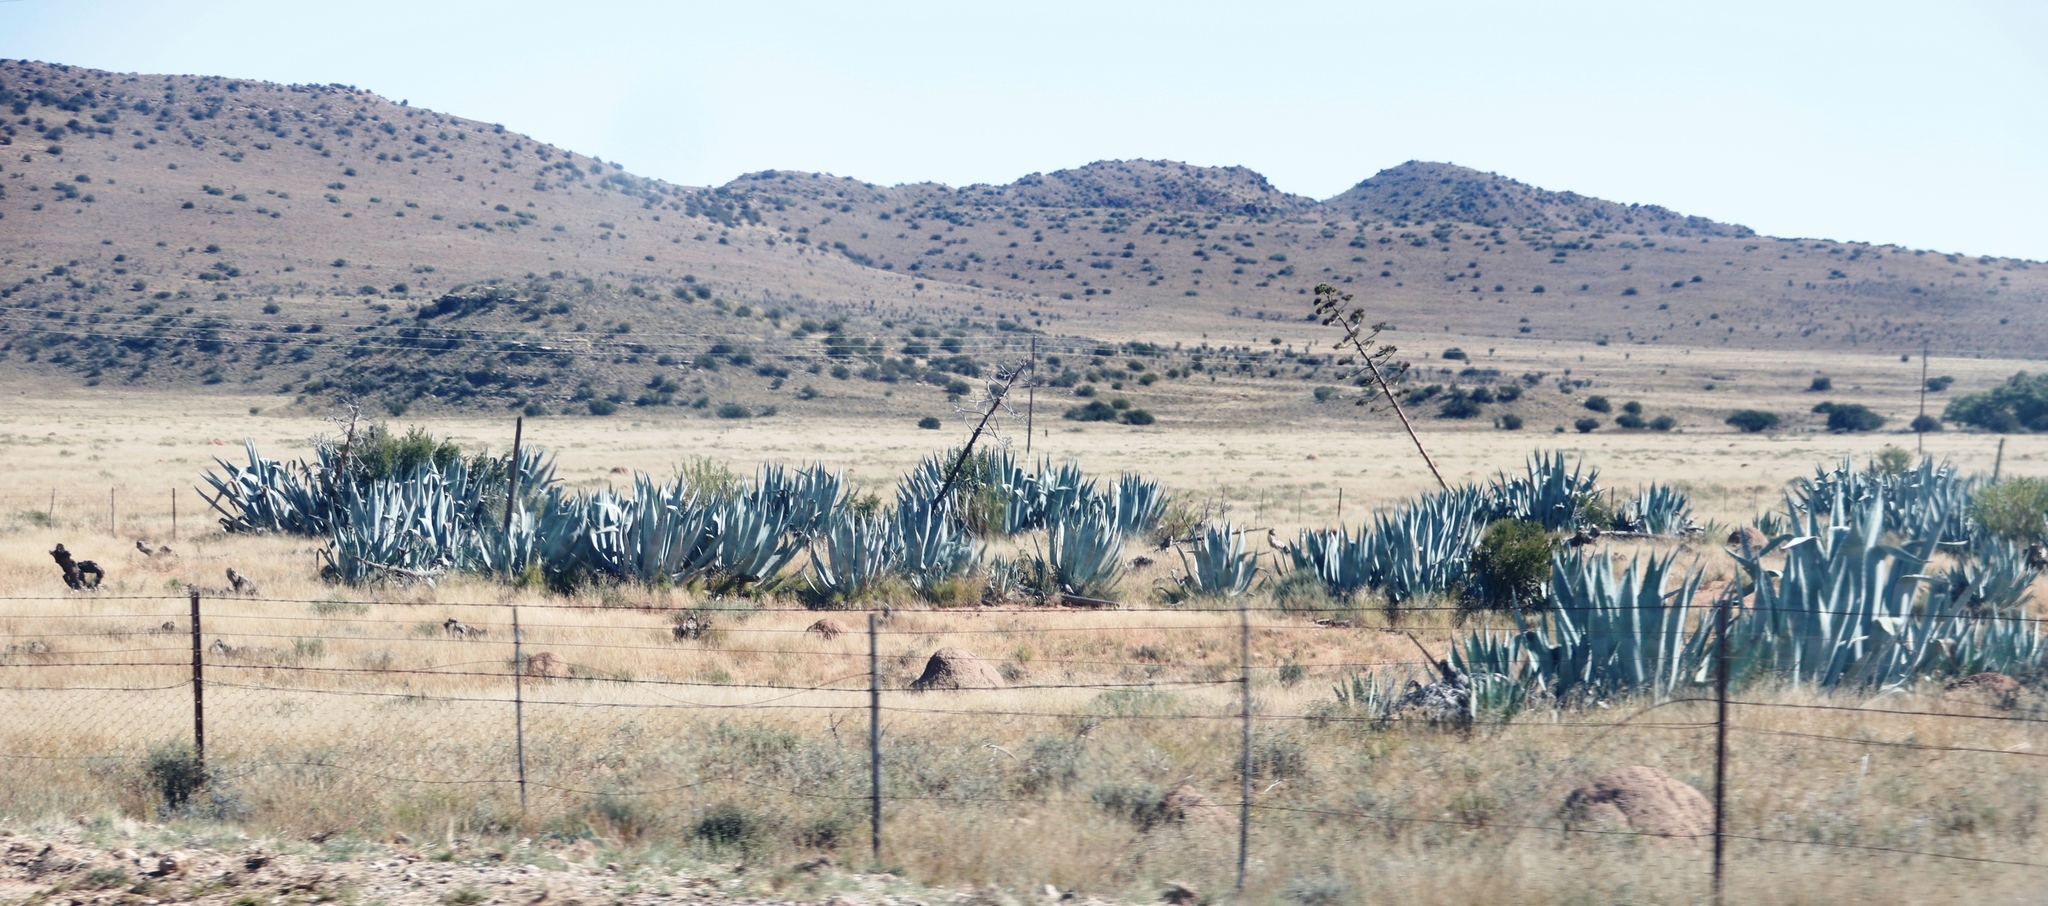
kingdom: Plantae
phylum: Tracheophyta
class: Liliopsida
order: Asparagales
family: Asparagaceae
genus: Agave
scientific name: Agave americana
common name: Centuryplant
